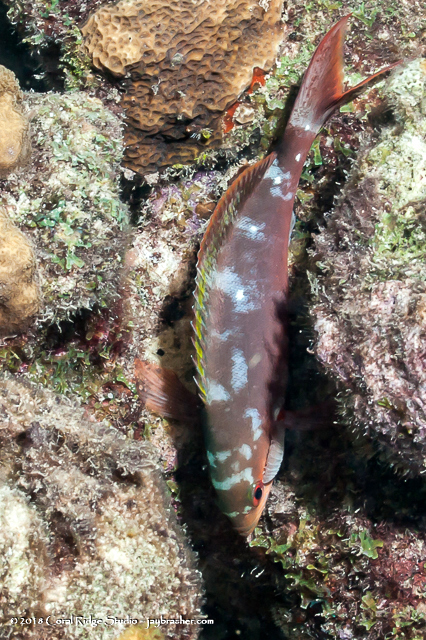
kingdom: Animalia
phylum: Arthropoda
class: Malacostraca
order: Isopoda
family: Cymothoidae
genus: Anilocra
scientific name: Anilocra haemuli
